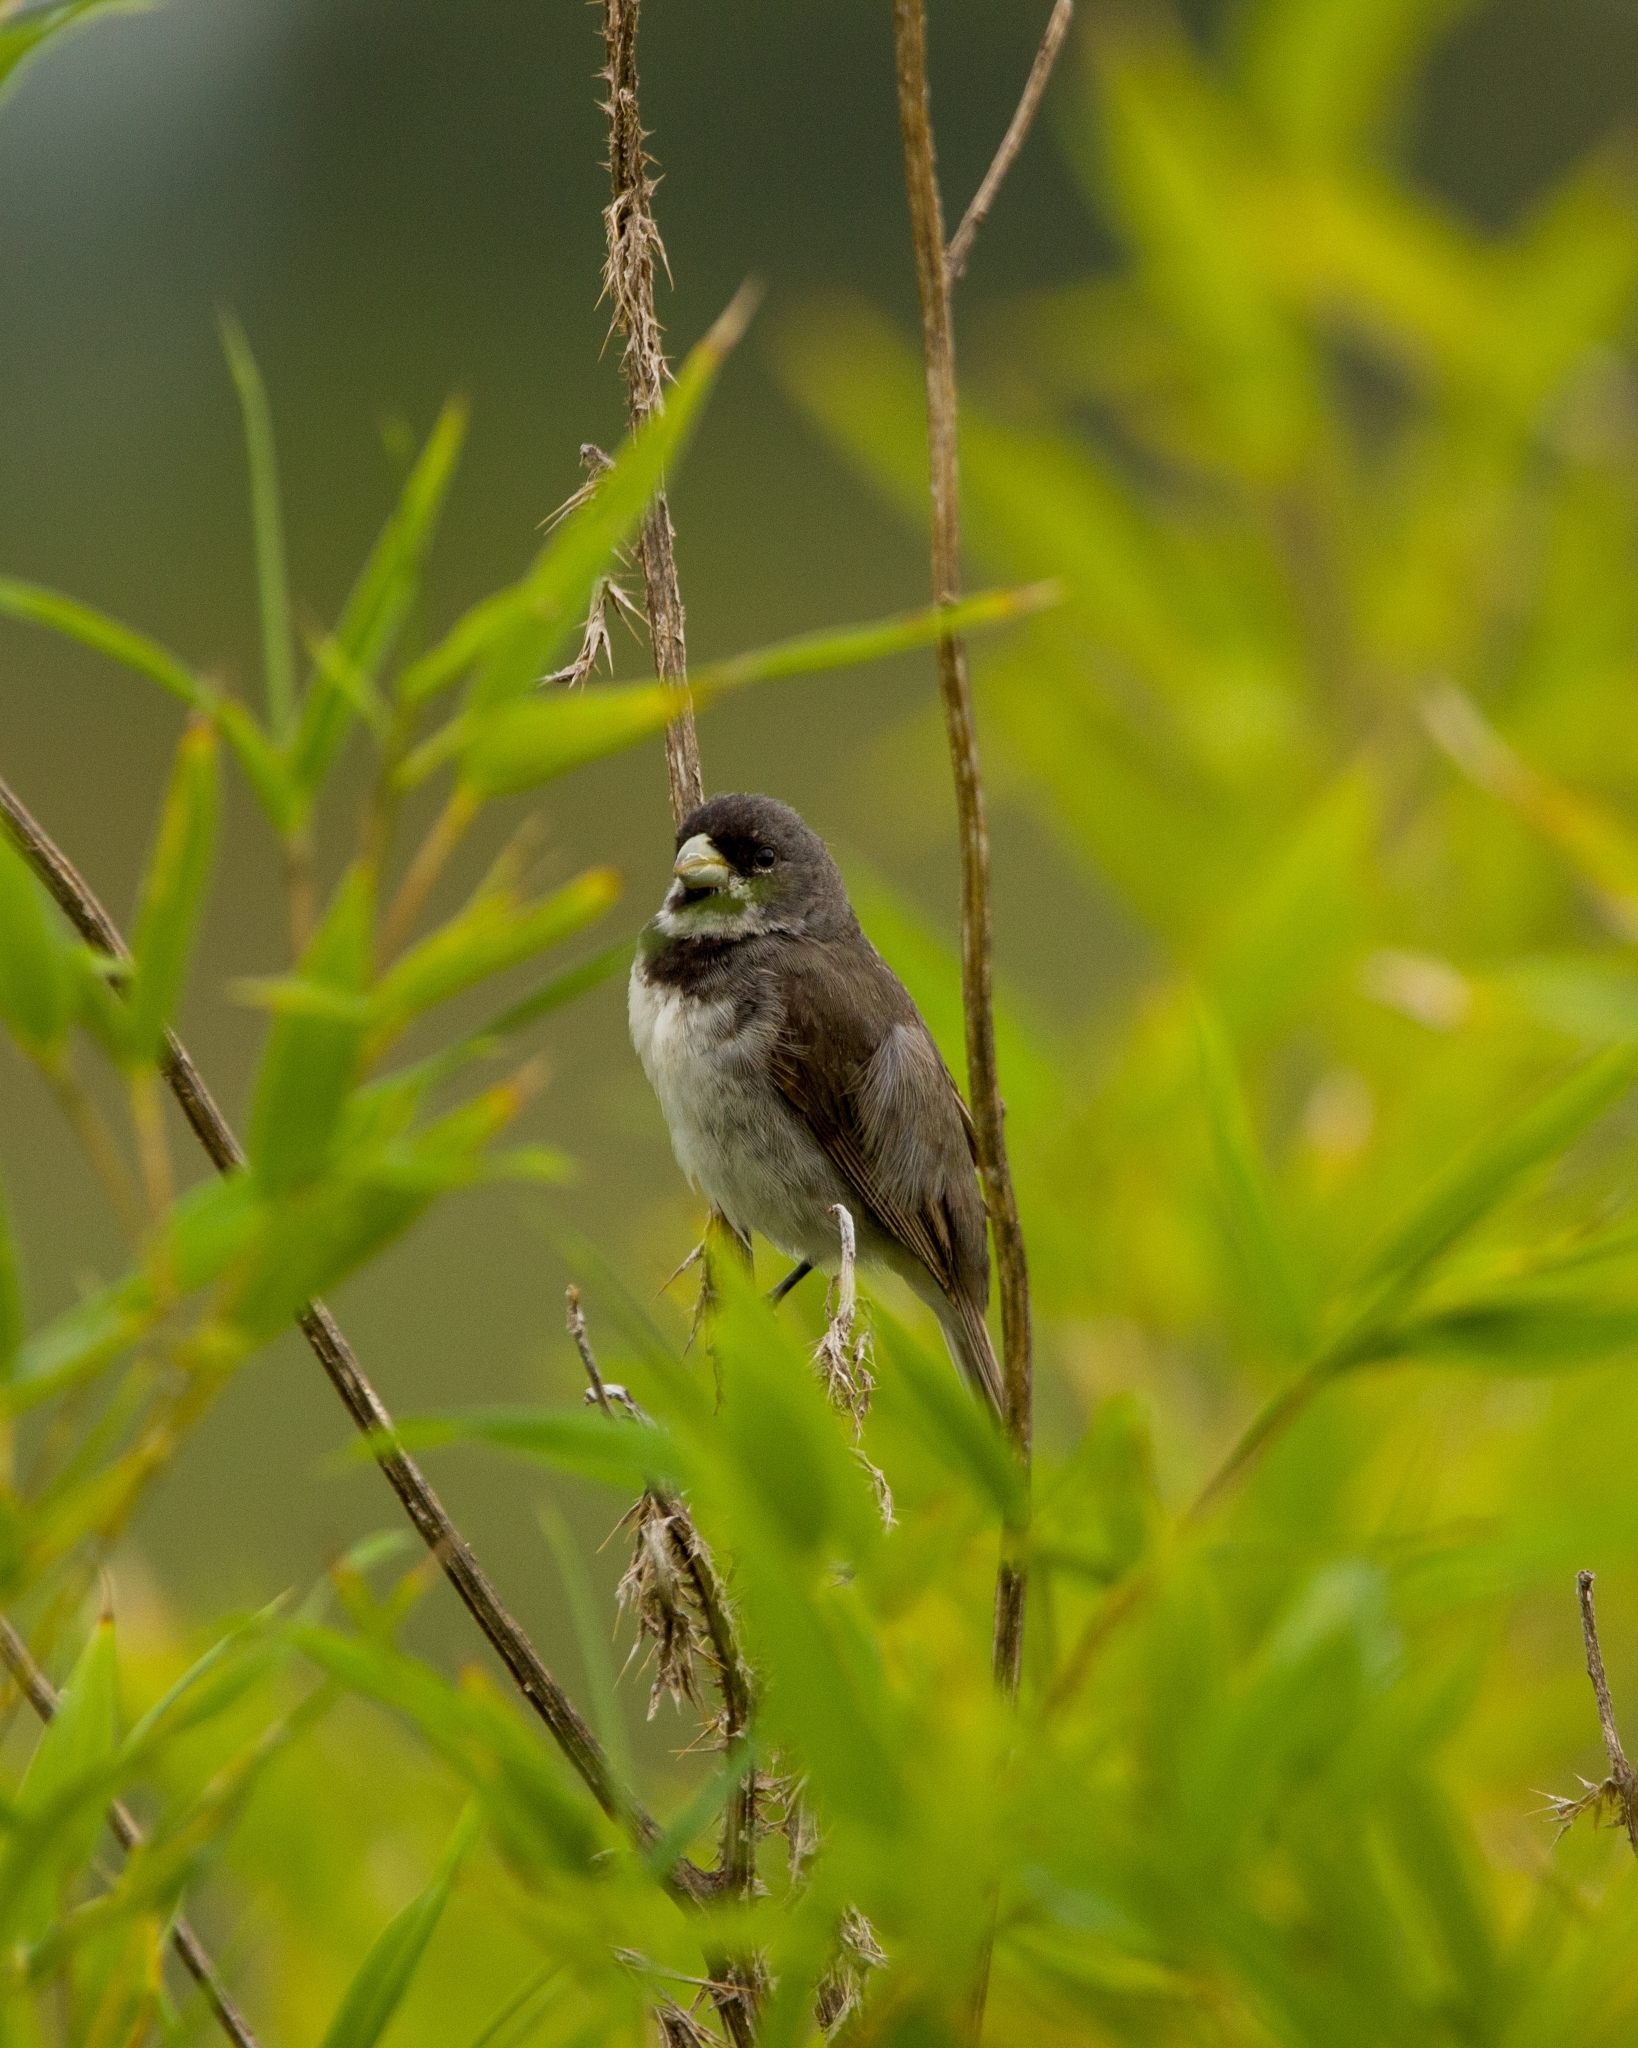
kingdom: Animalia
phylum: Chordata
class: Aves
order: Passeriformes
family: Thraupidae
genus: Sporophila
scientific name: Sporophila caerulescens
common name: Double-collared seedeater
